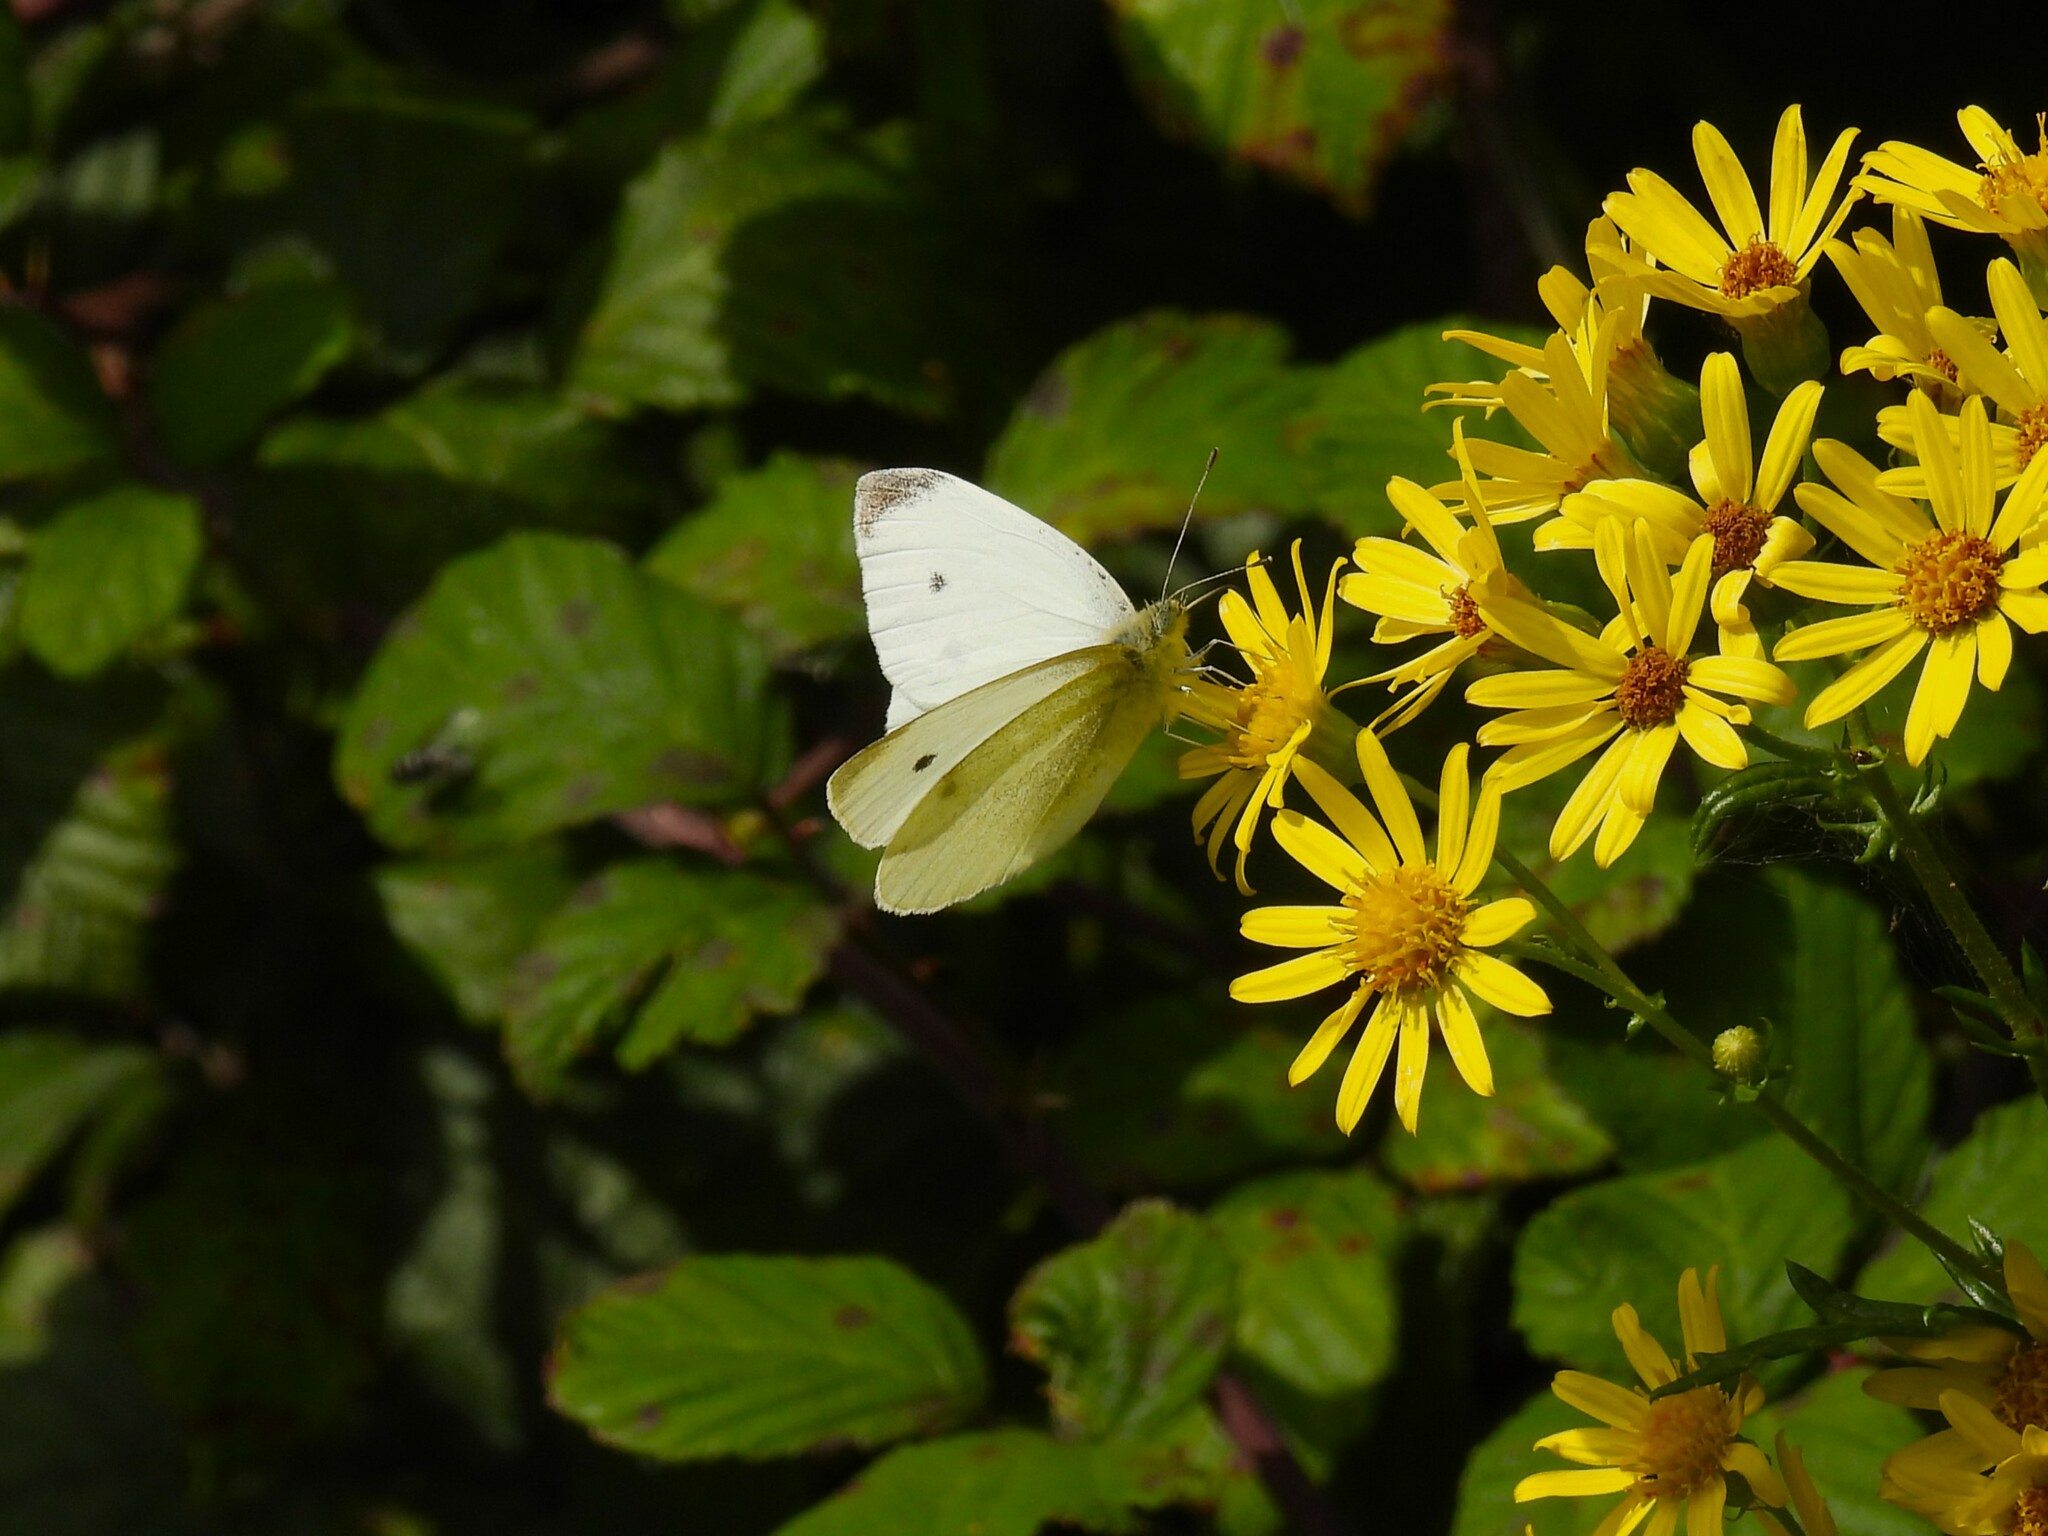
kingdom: Animalia
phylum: Arthropoda
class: Insecta
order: Lepidoptera
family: Pieridae
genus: Pieris
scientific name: Pieris rapae
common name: Small white
